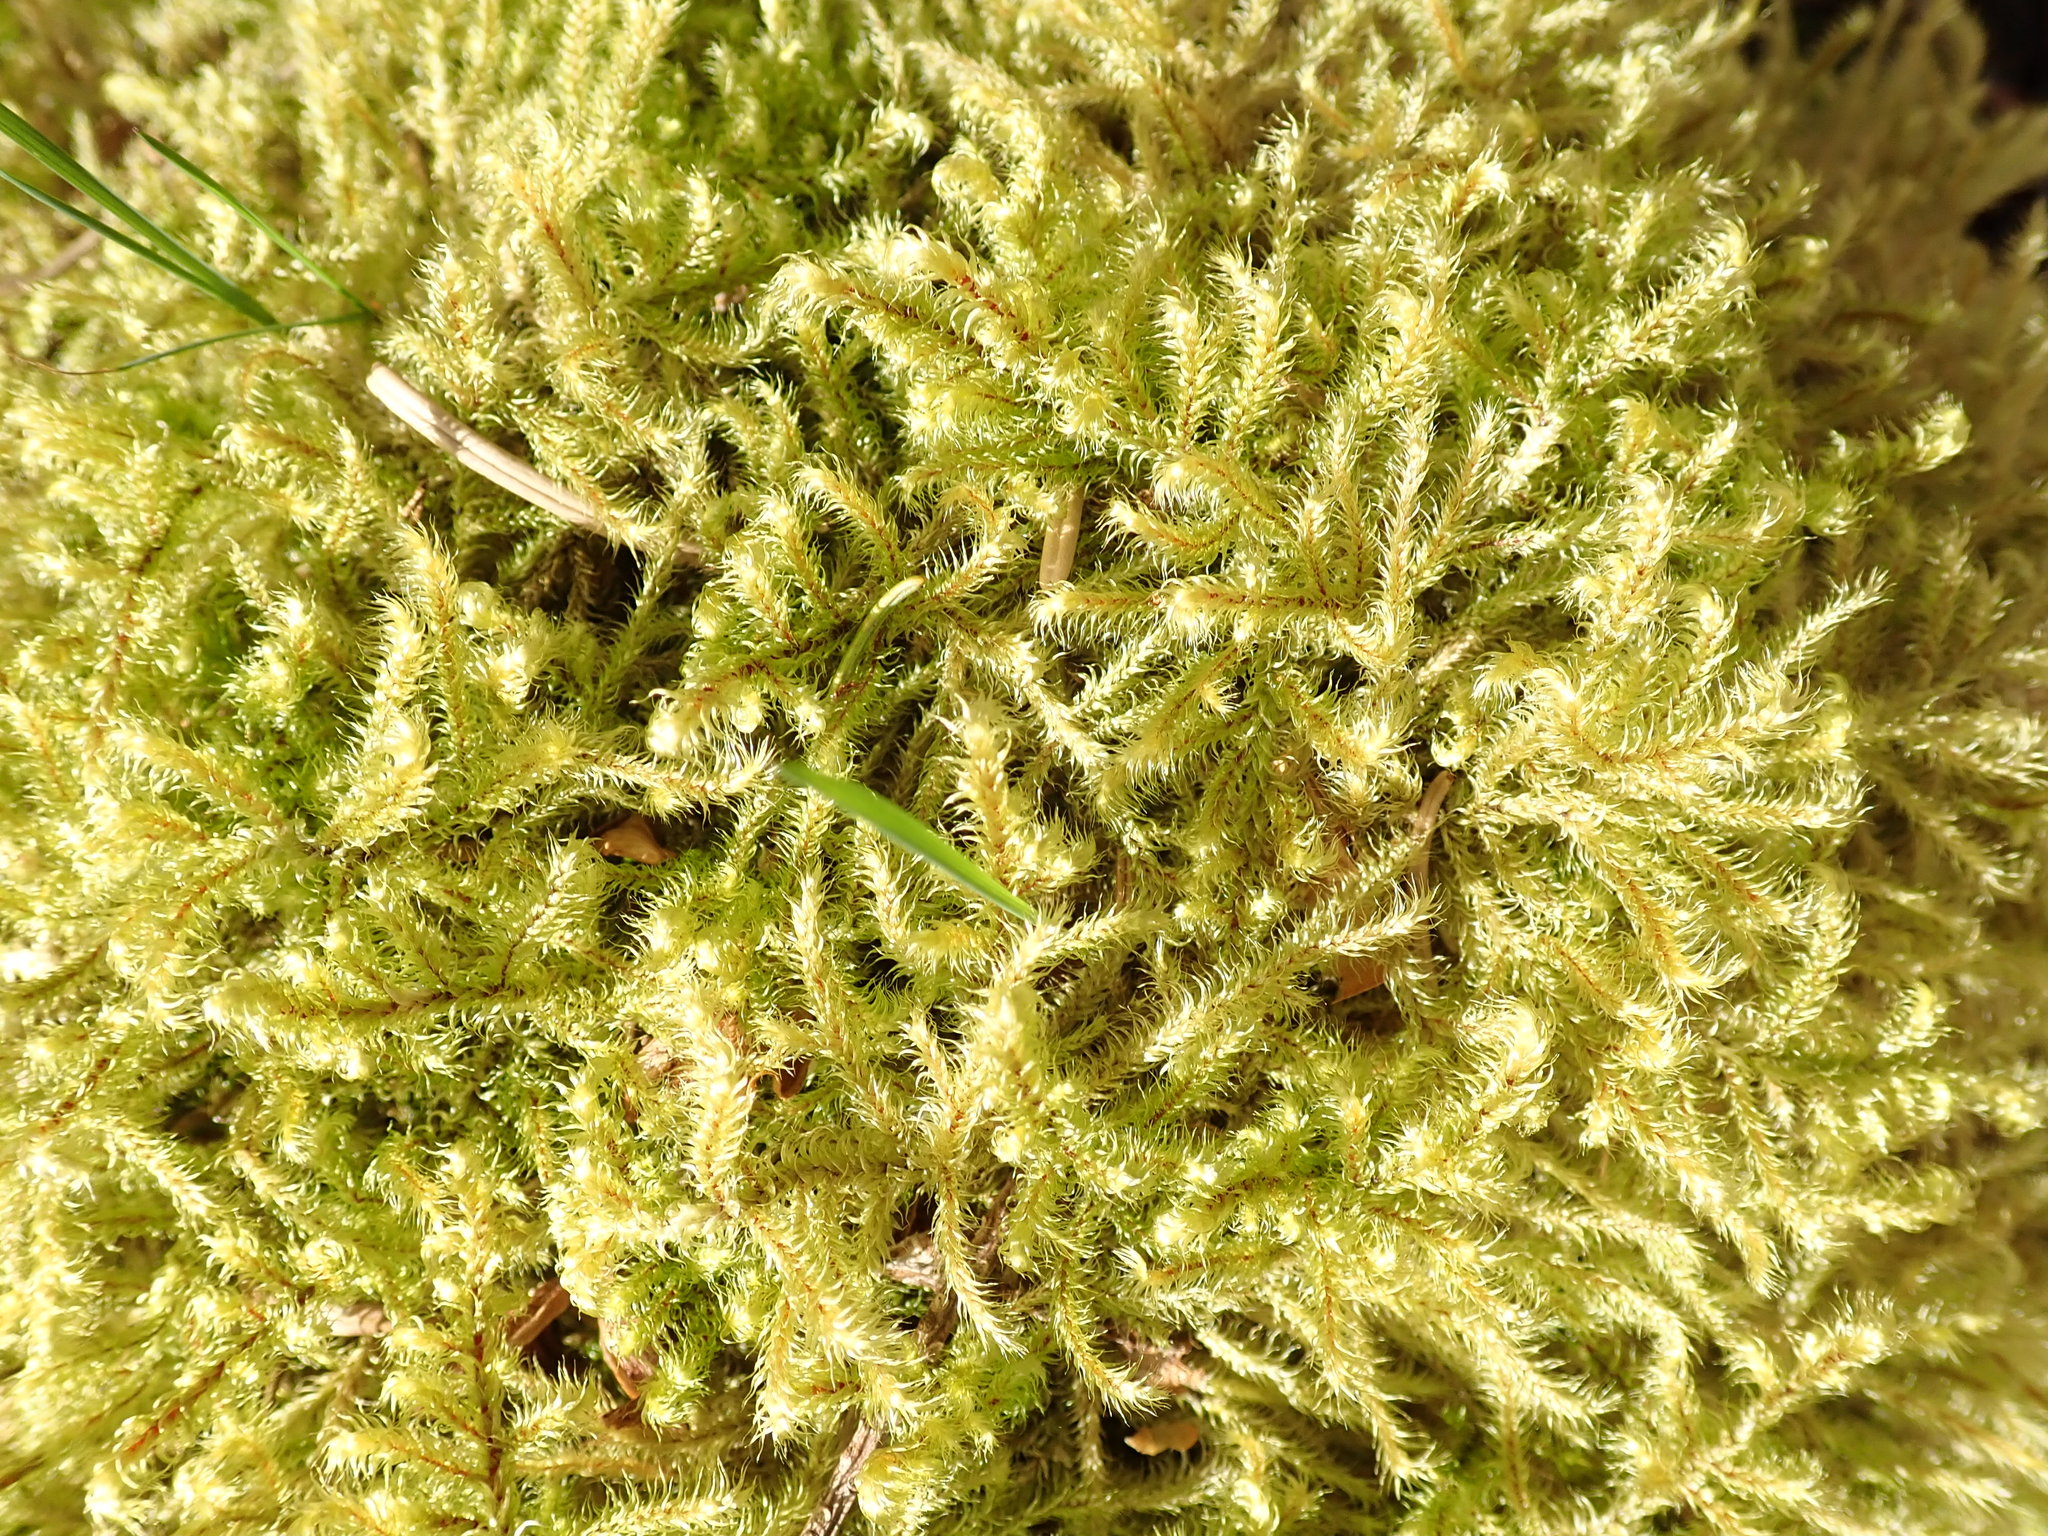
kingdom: Plantae
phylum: Bryophyta
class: Bryopsida
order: Hypnales
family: Hylocomiaceae
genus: Rhytidiadelphus
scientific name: Rhytidiadelphus loreus
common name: Lanky moss
